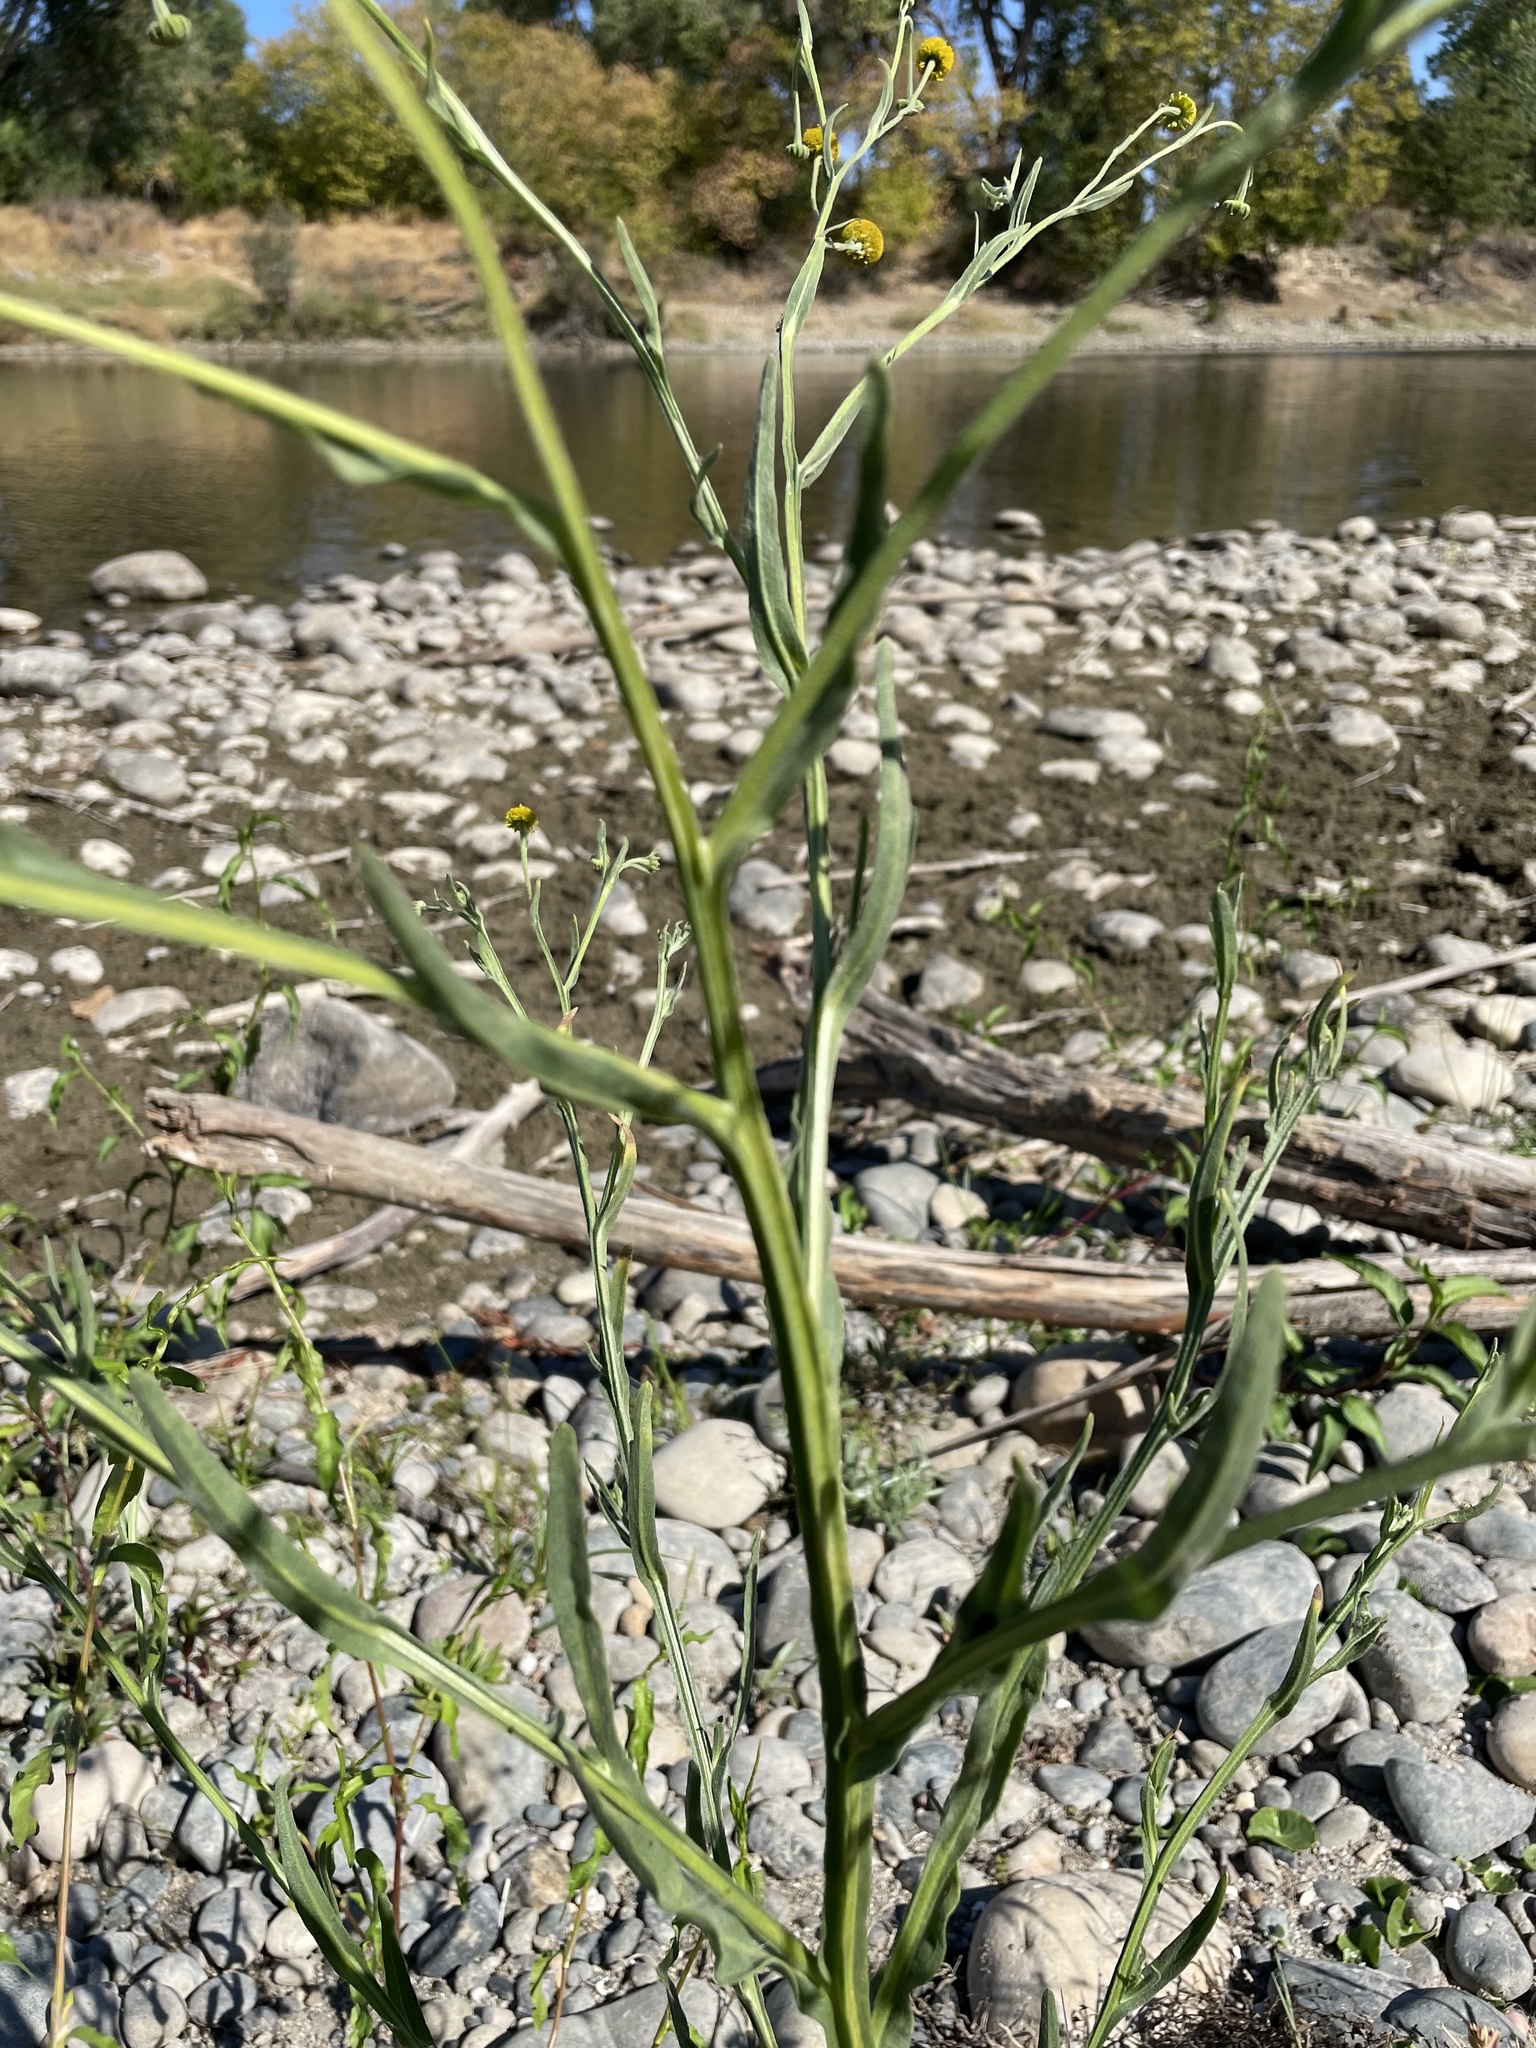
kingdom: Plantae
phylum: Tracheophyta
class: Magnoliopsida
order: Asterales
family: Asteraceae
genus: Helenium
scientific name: Helenium puberulum
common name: Sneezewort
